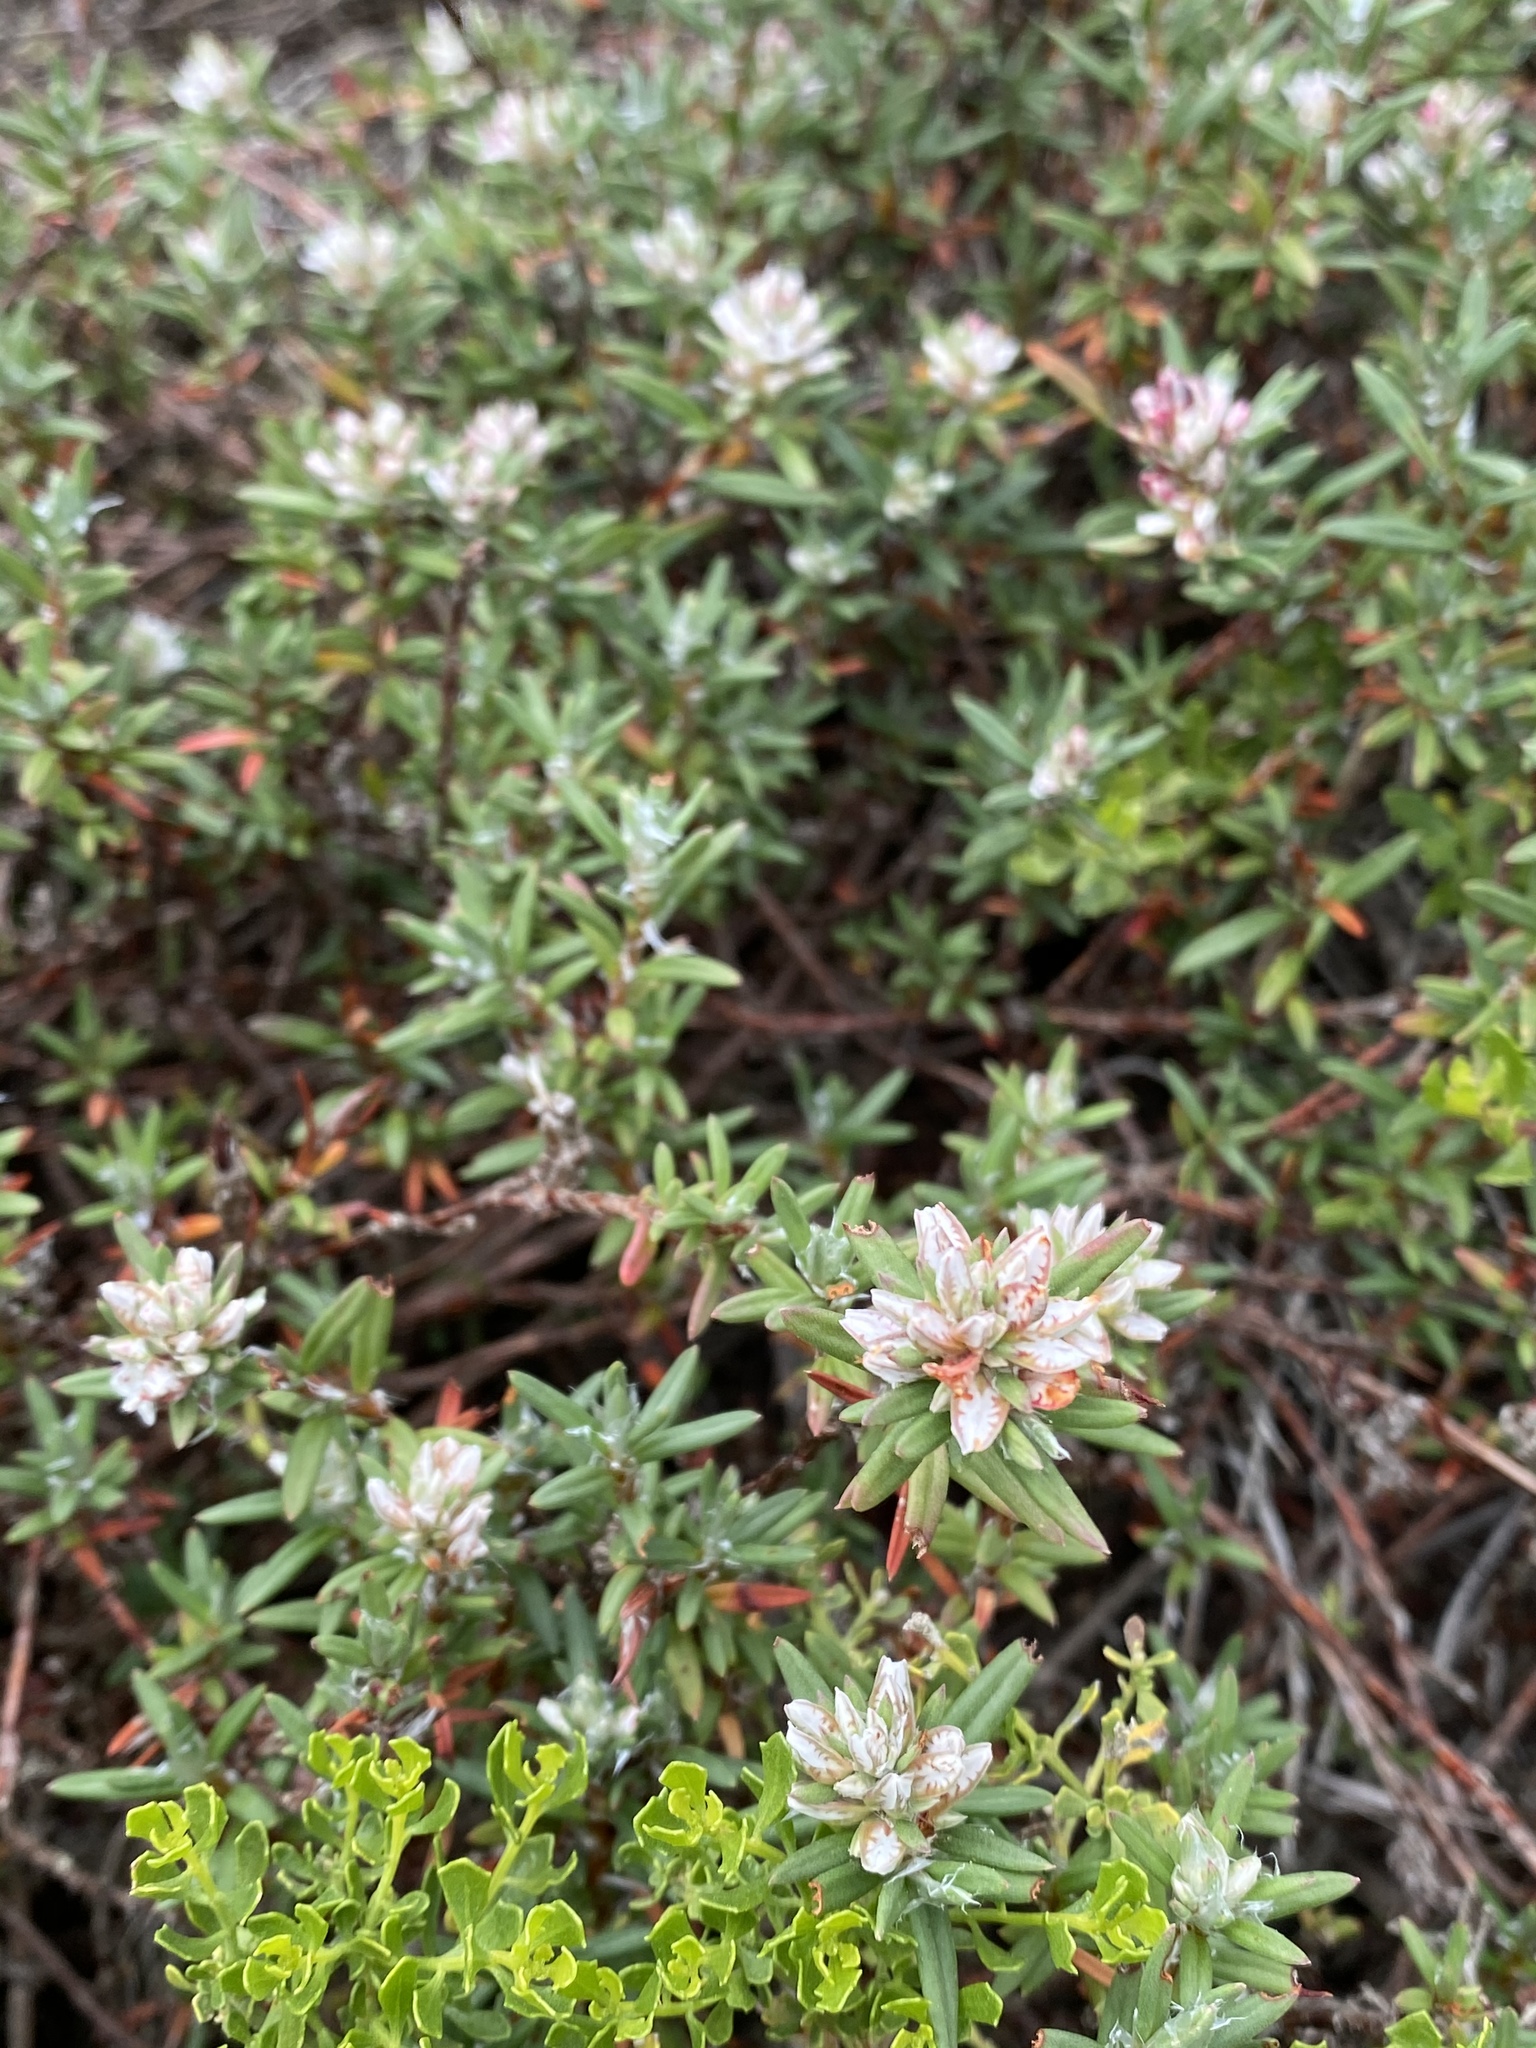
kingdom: Plantae
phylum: Tracheophyta
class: Magnoliopsida
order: Caryophyllales
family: Polygonaceae
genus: Polygonum
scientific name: Polygonum paronychia
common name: Dune knotweed
